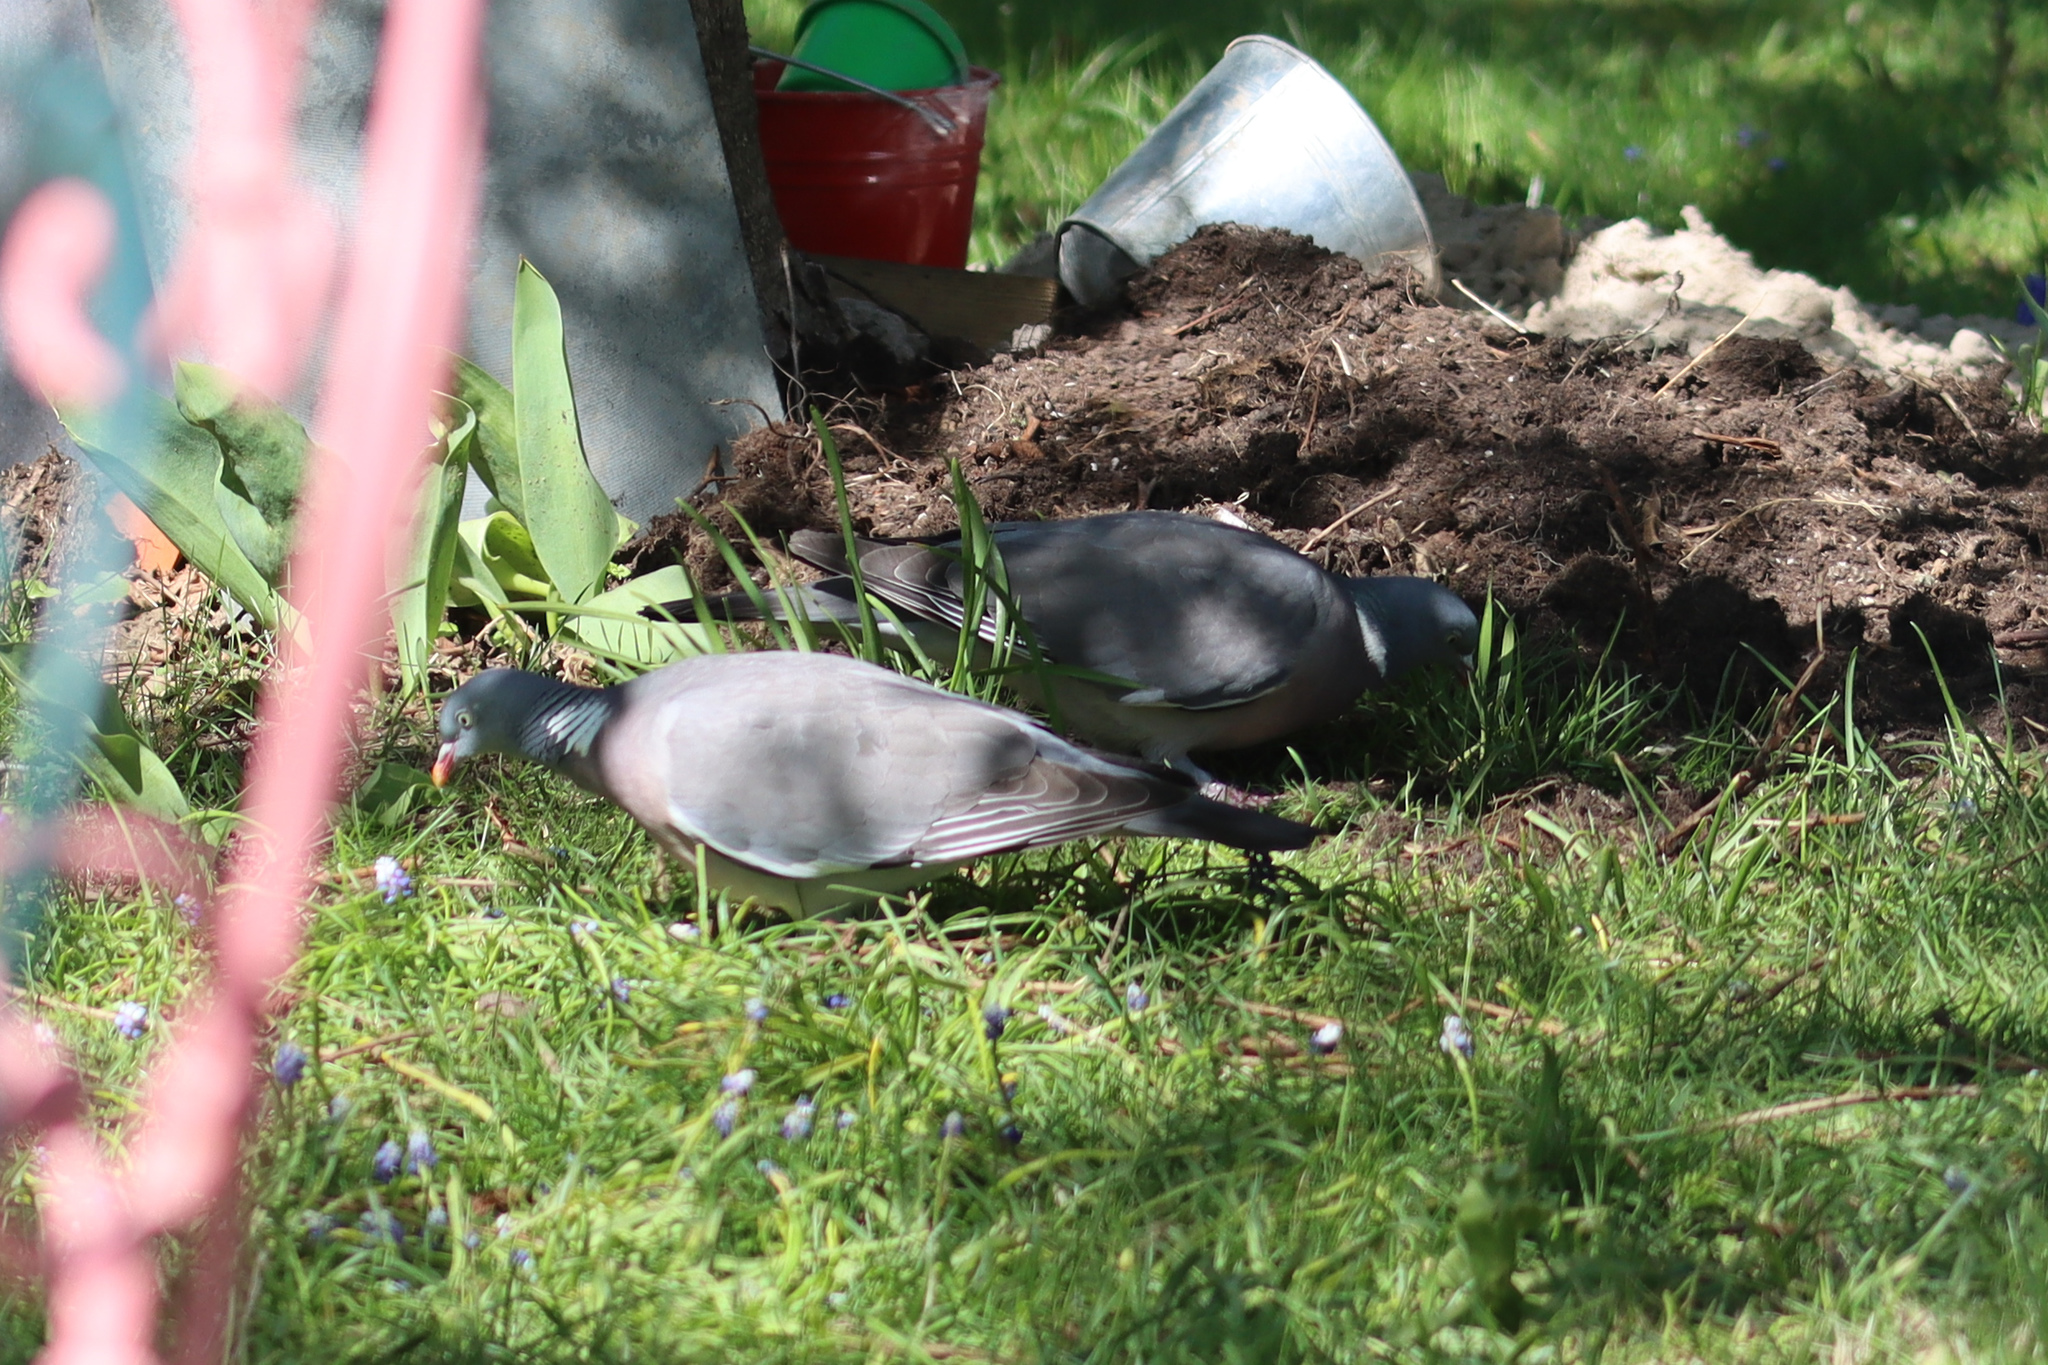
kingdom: Animalia
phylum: Chordata
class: Aves
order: Columbiformes
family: Columbidae
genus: Columba
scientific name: Columba palumbus
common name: Common wood pigeon
